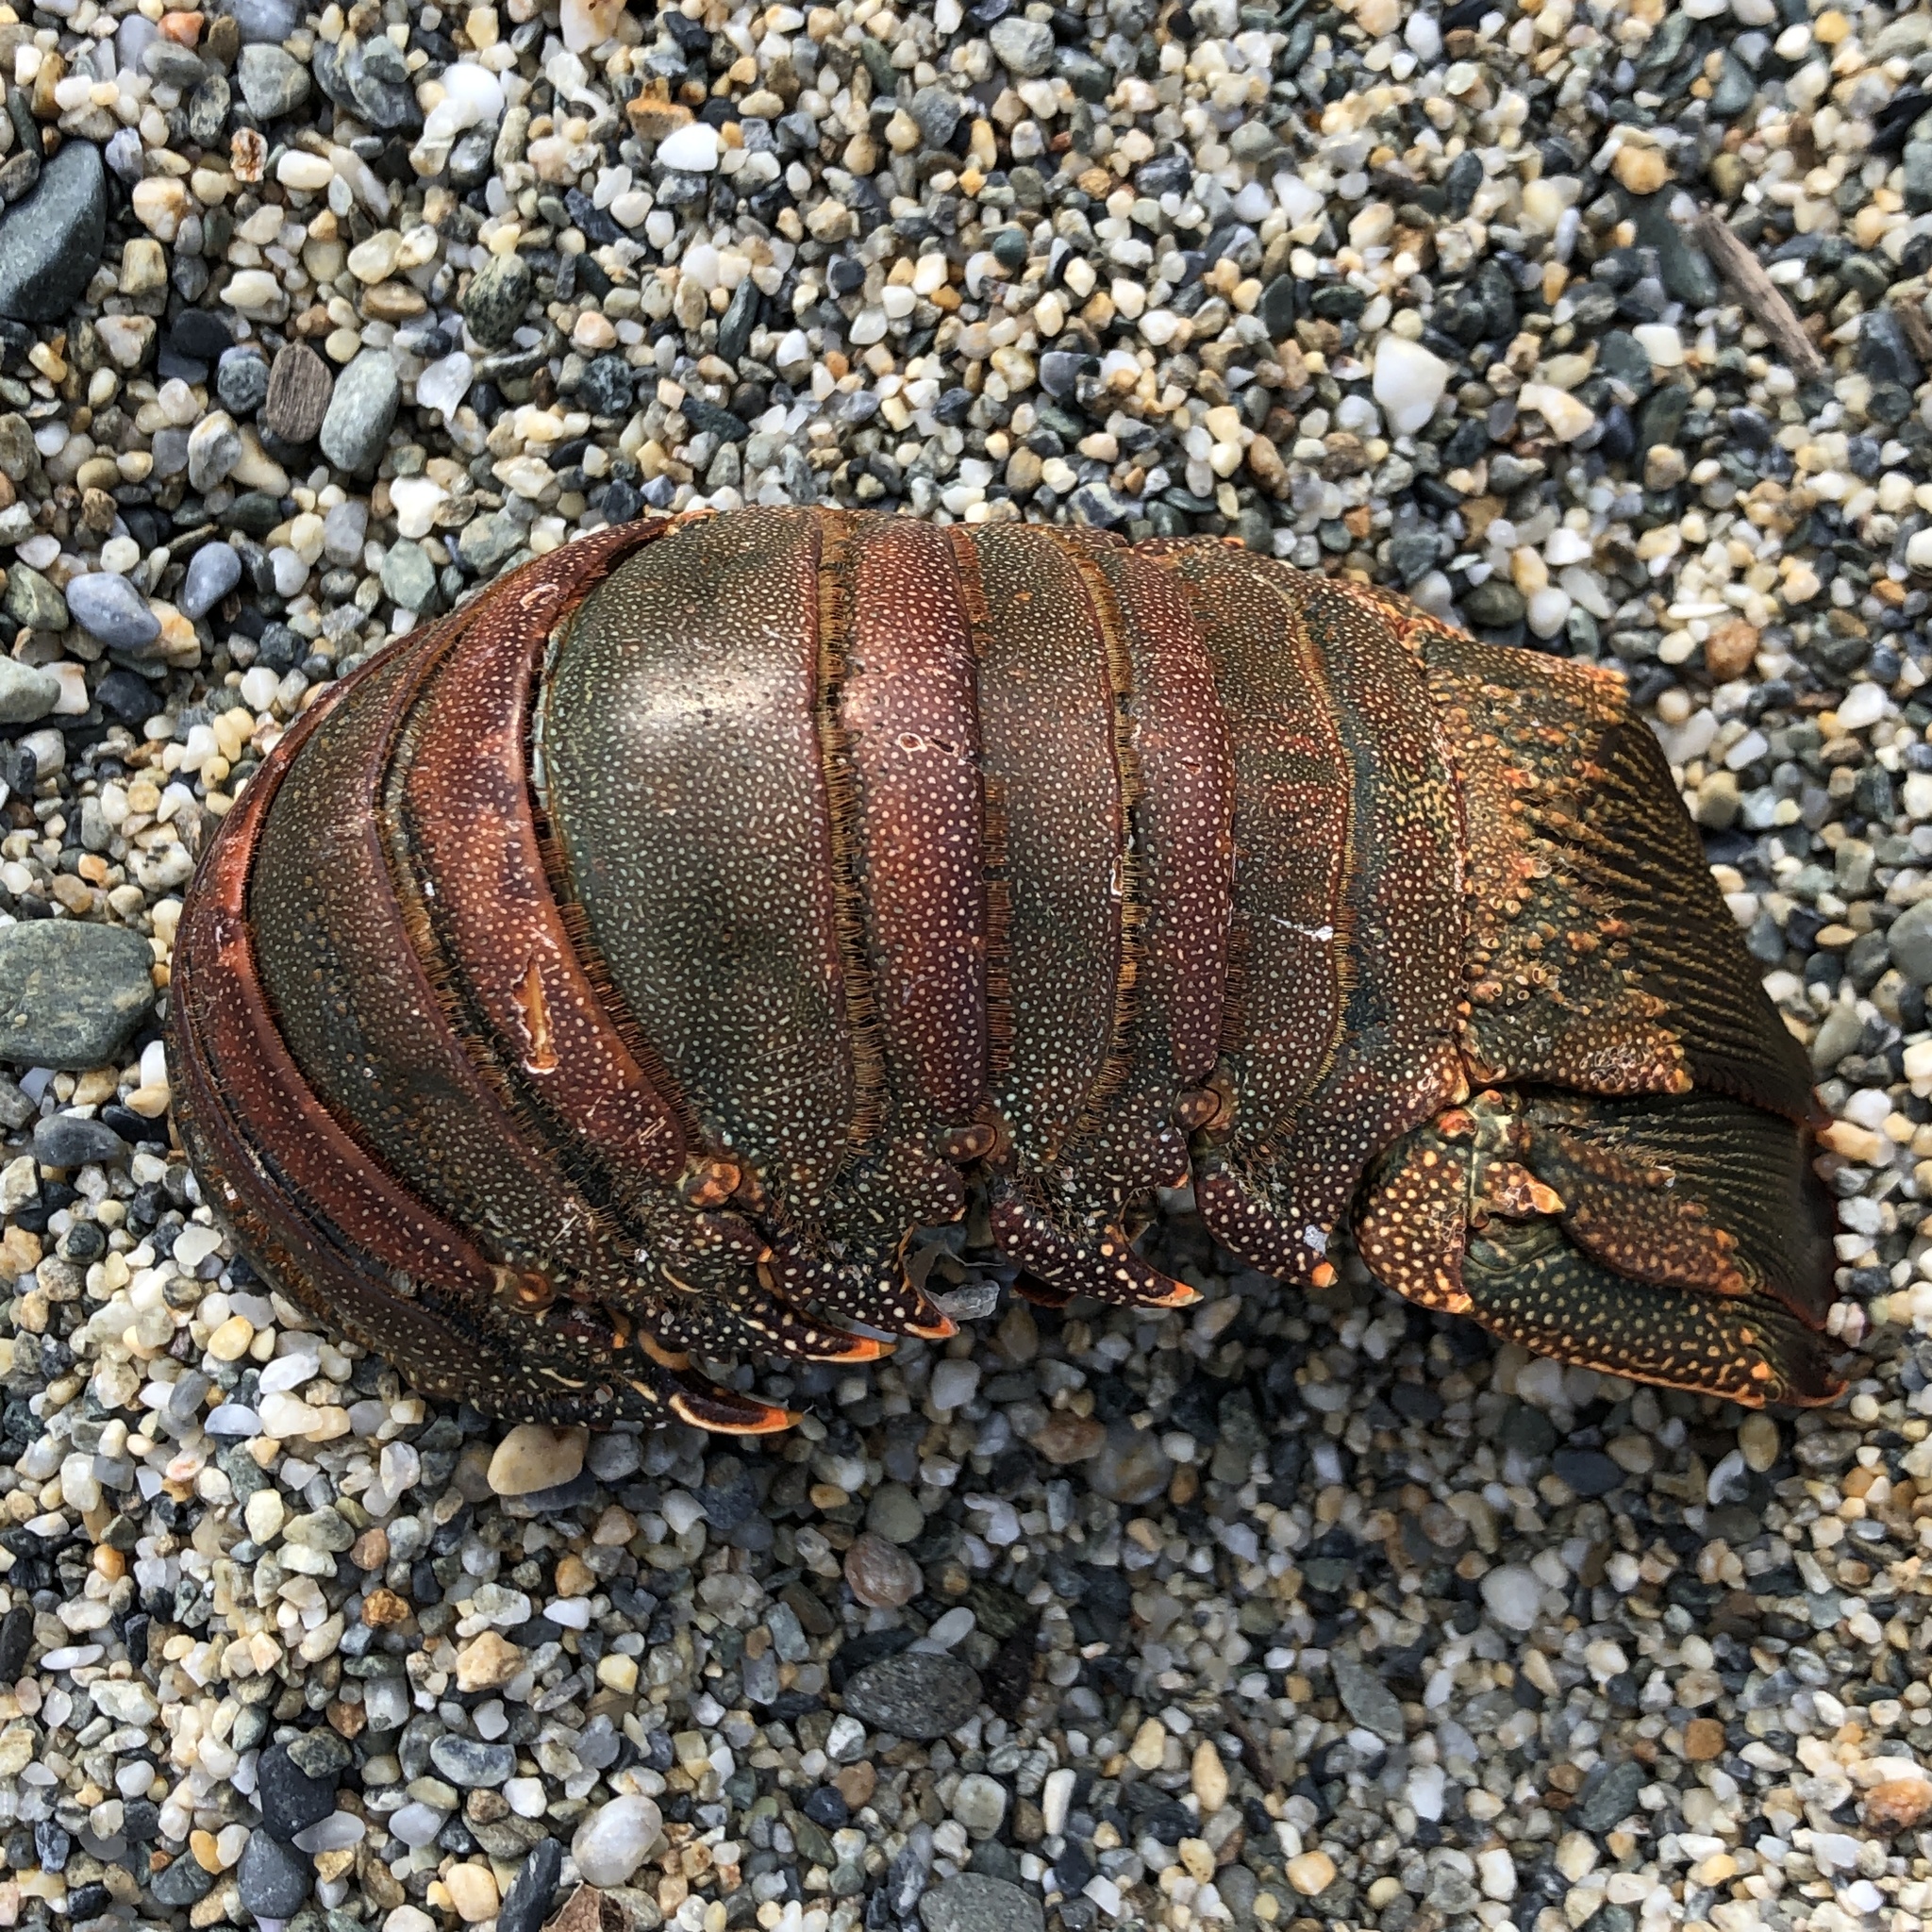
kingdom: Animalia
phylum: Arthropoda
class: Malacostraca
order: Decapoda
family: Palinuridae
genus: Panulirus
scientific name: Panulirus penicillatus
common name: Pronghorn spiny lobster
